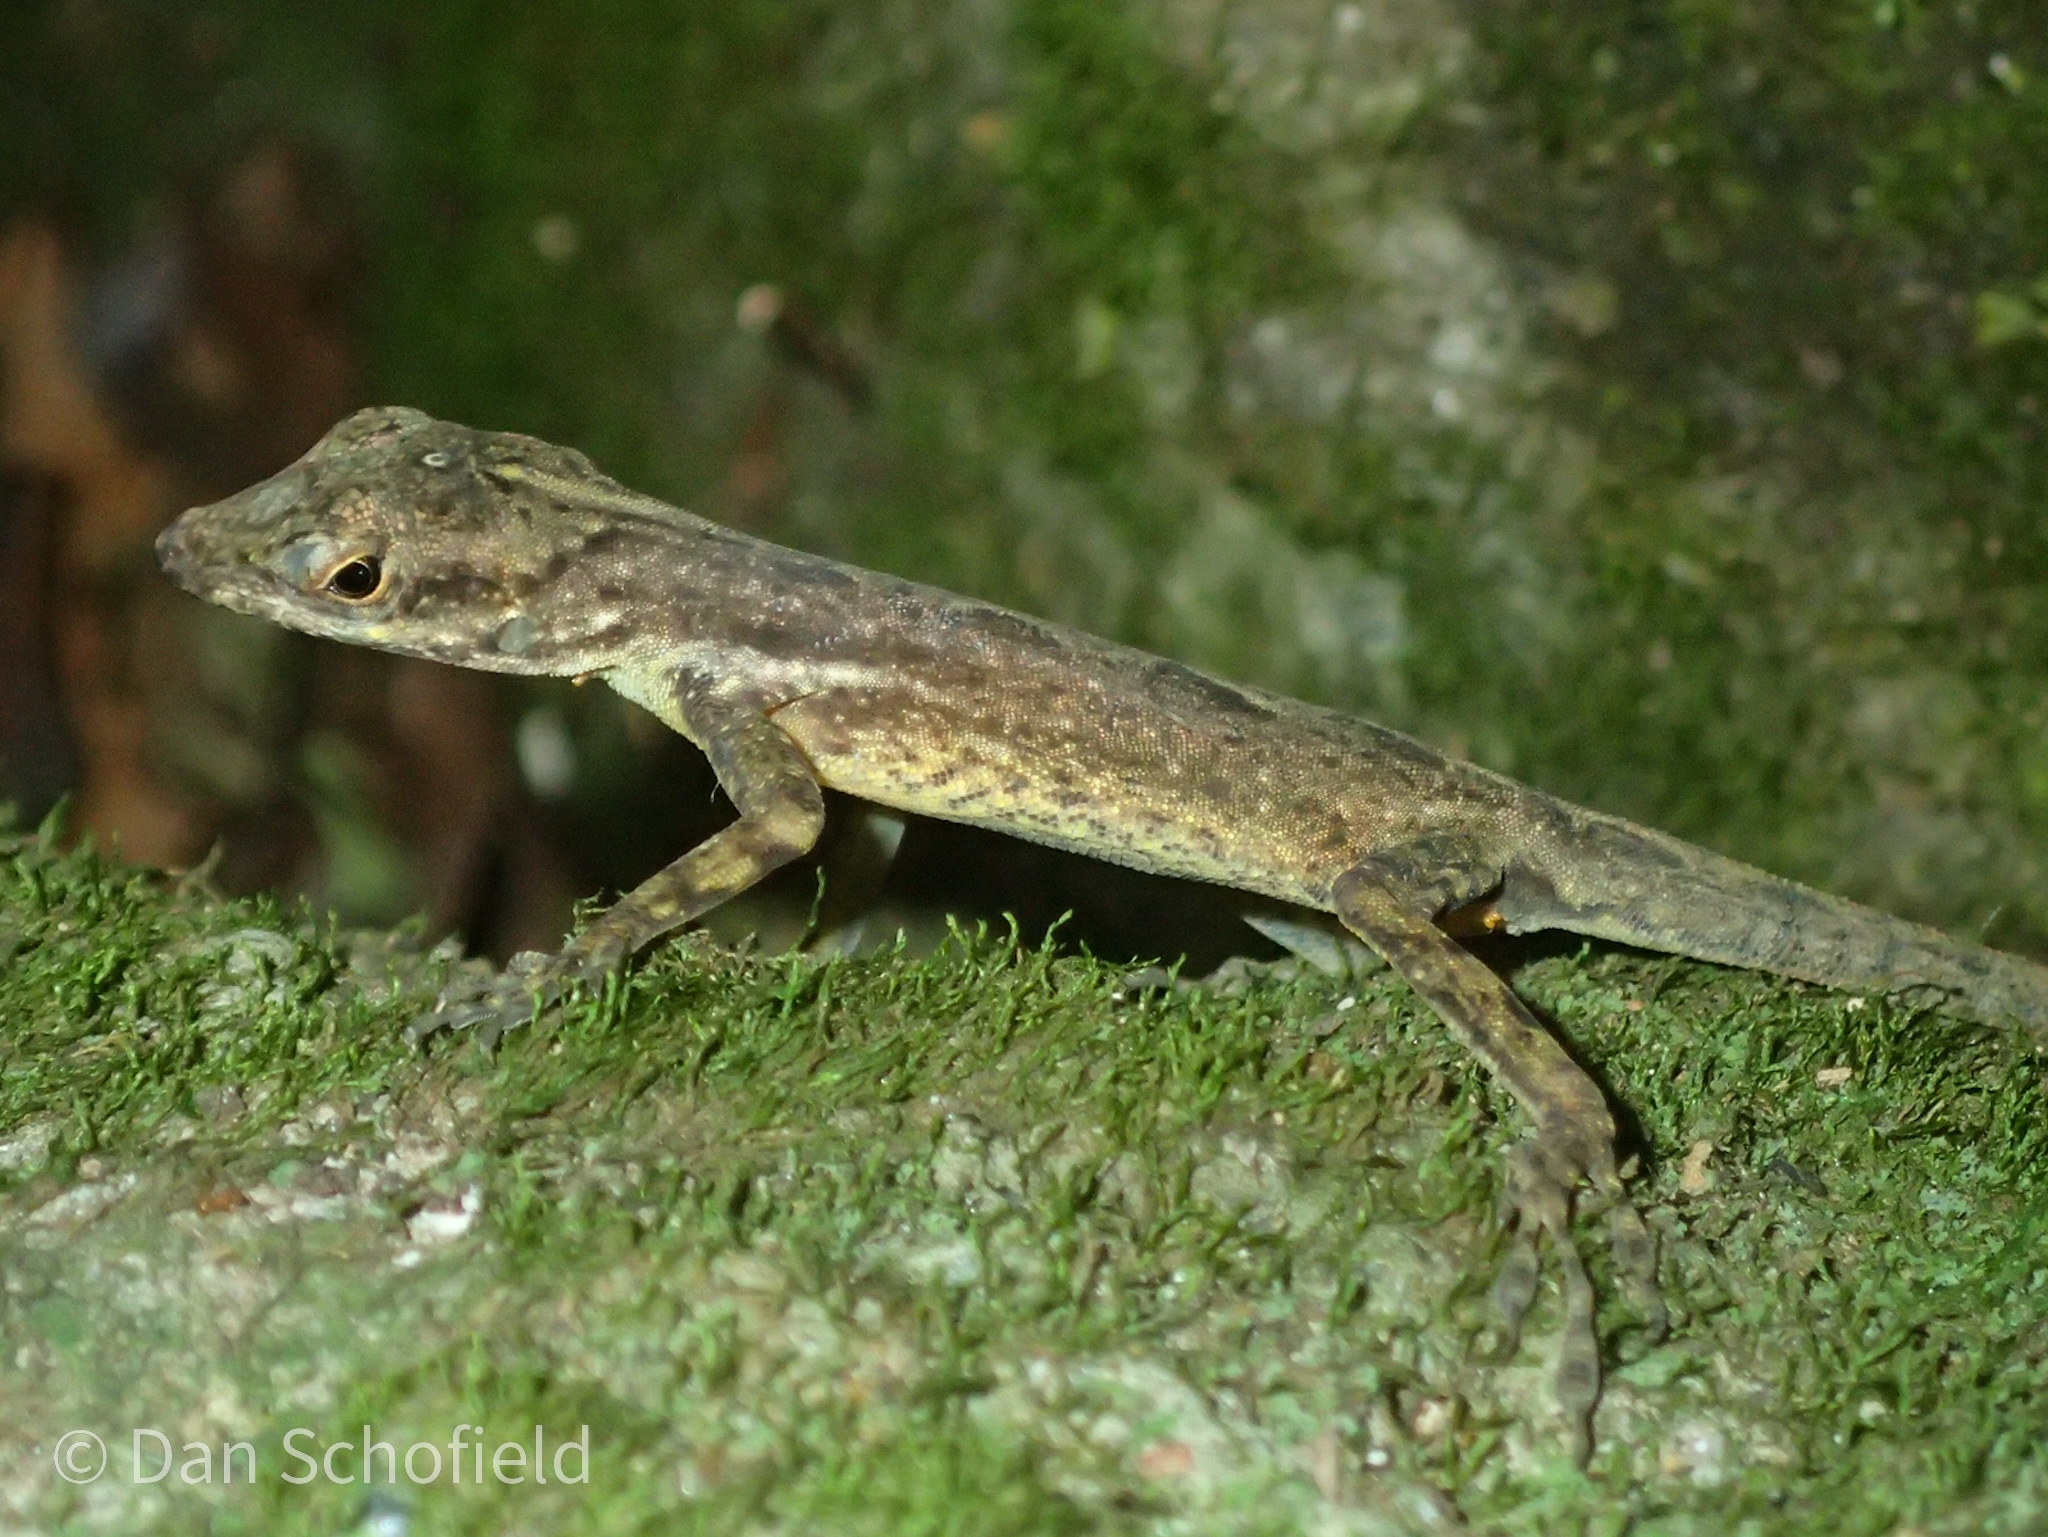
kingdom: Animalia
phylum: Chordata
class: Squamata
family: Dactyloidae
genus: Anolis
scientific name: Anolis sabanus
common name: Saba anole
